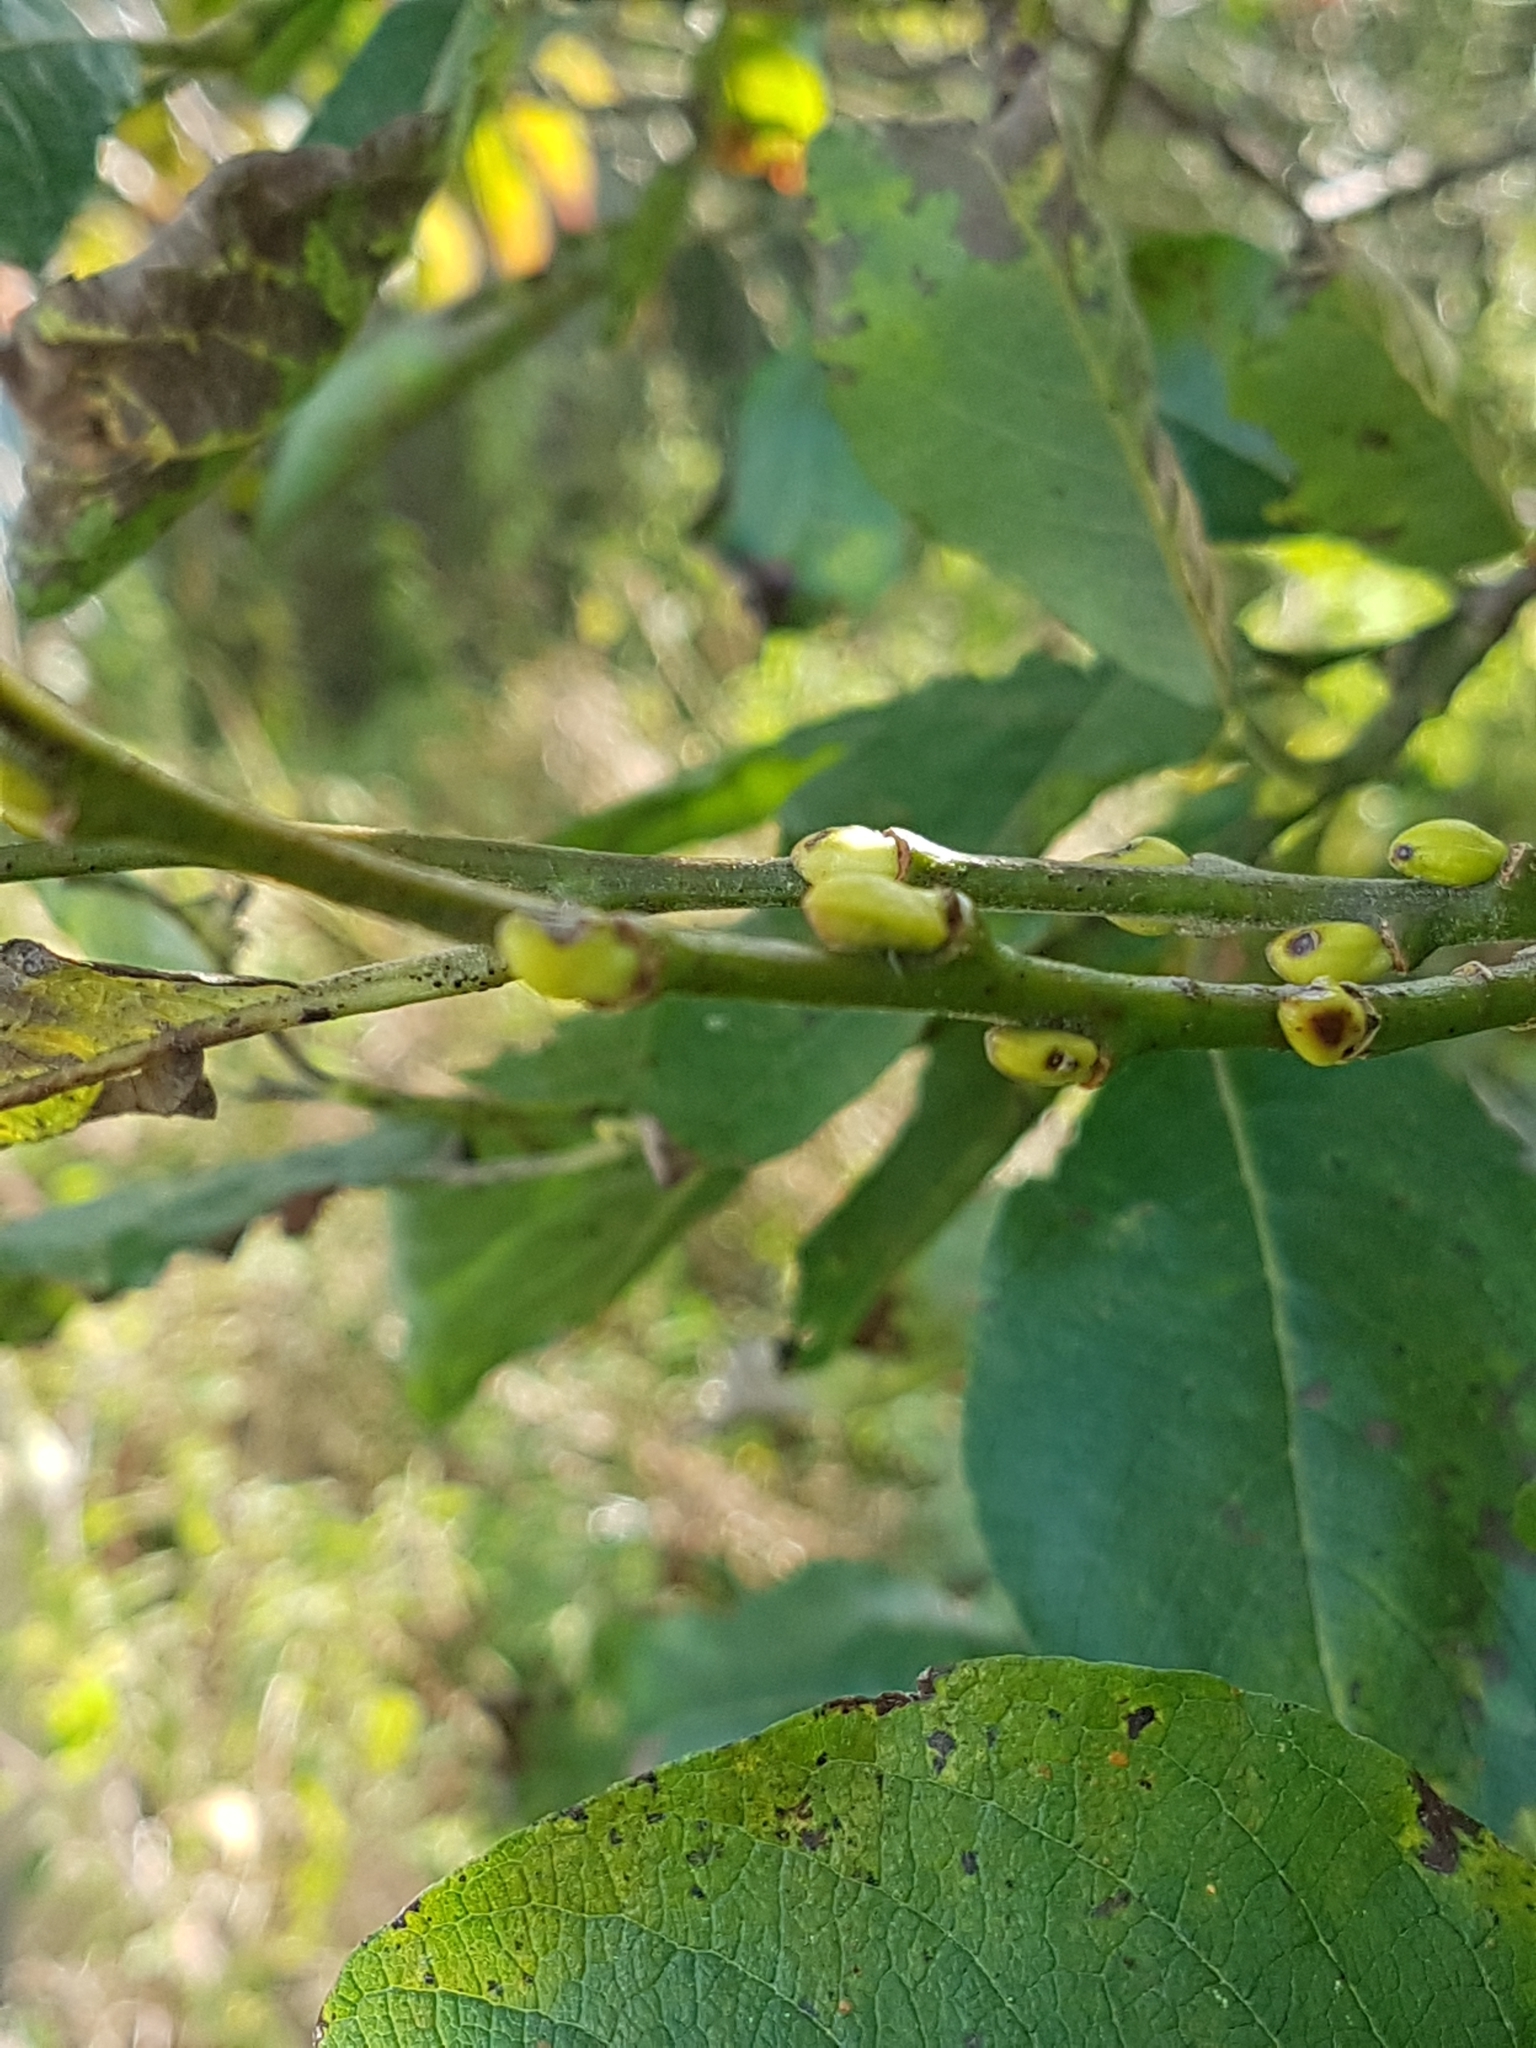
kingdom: Plantae
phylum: Tracheophyta
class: Magnoliopsida
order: Malpighiales
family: Salicaceae
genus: Salix
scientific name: Salix caprea
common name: Goat willow
